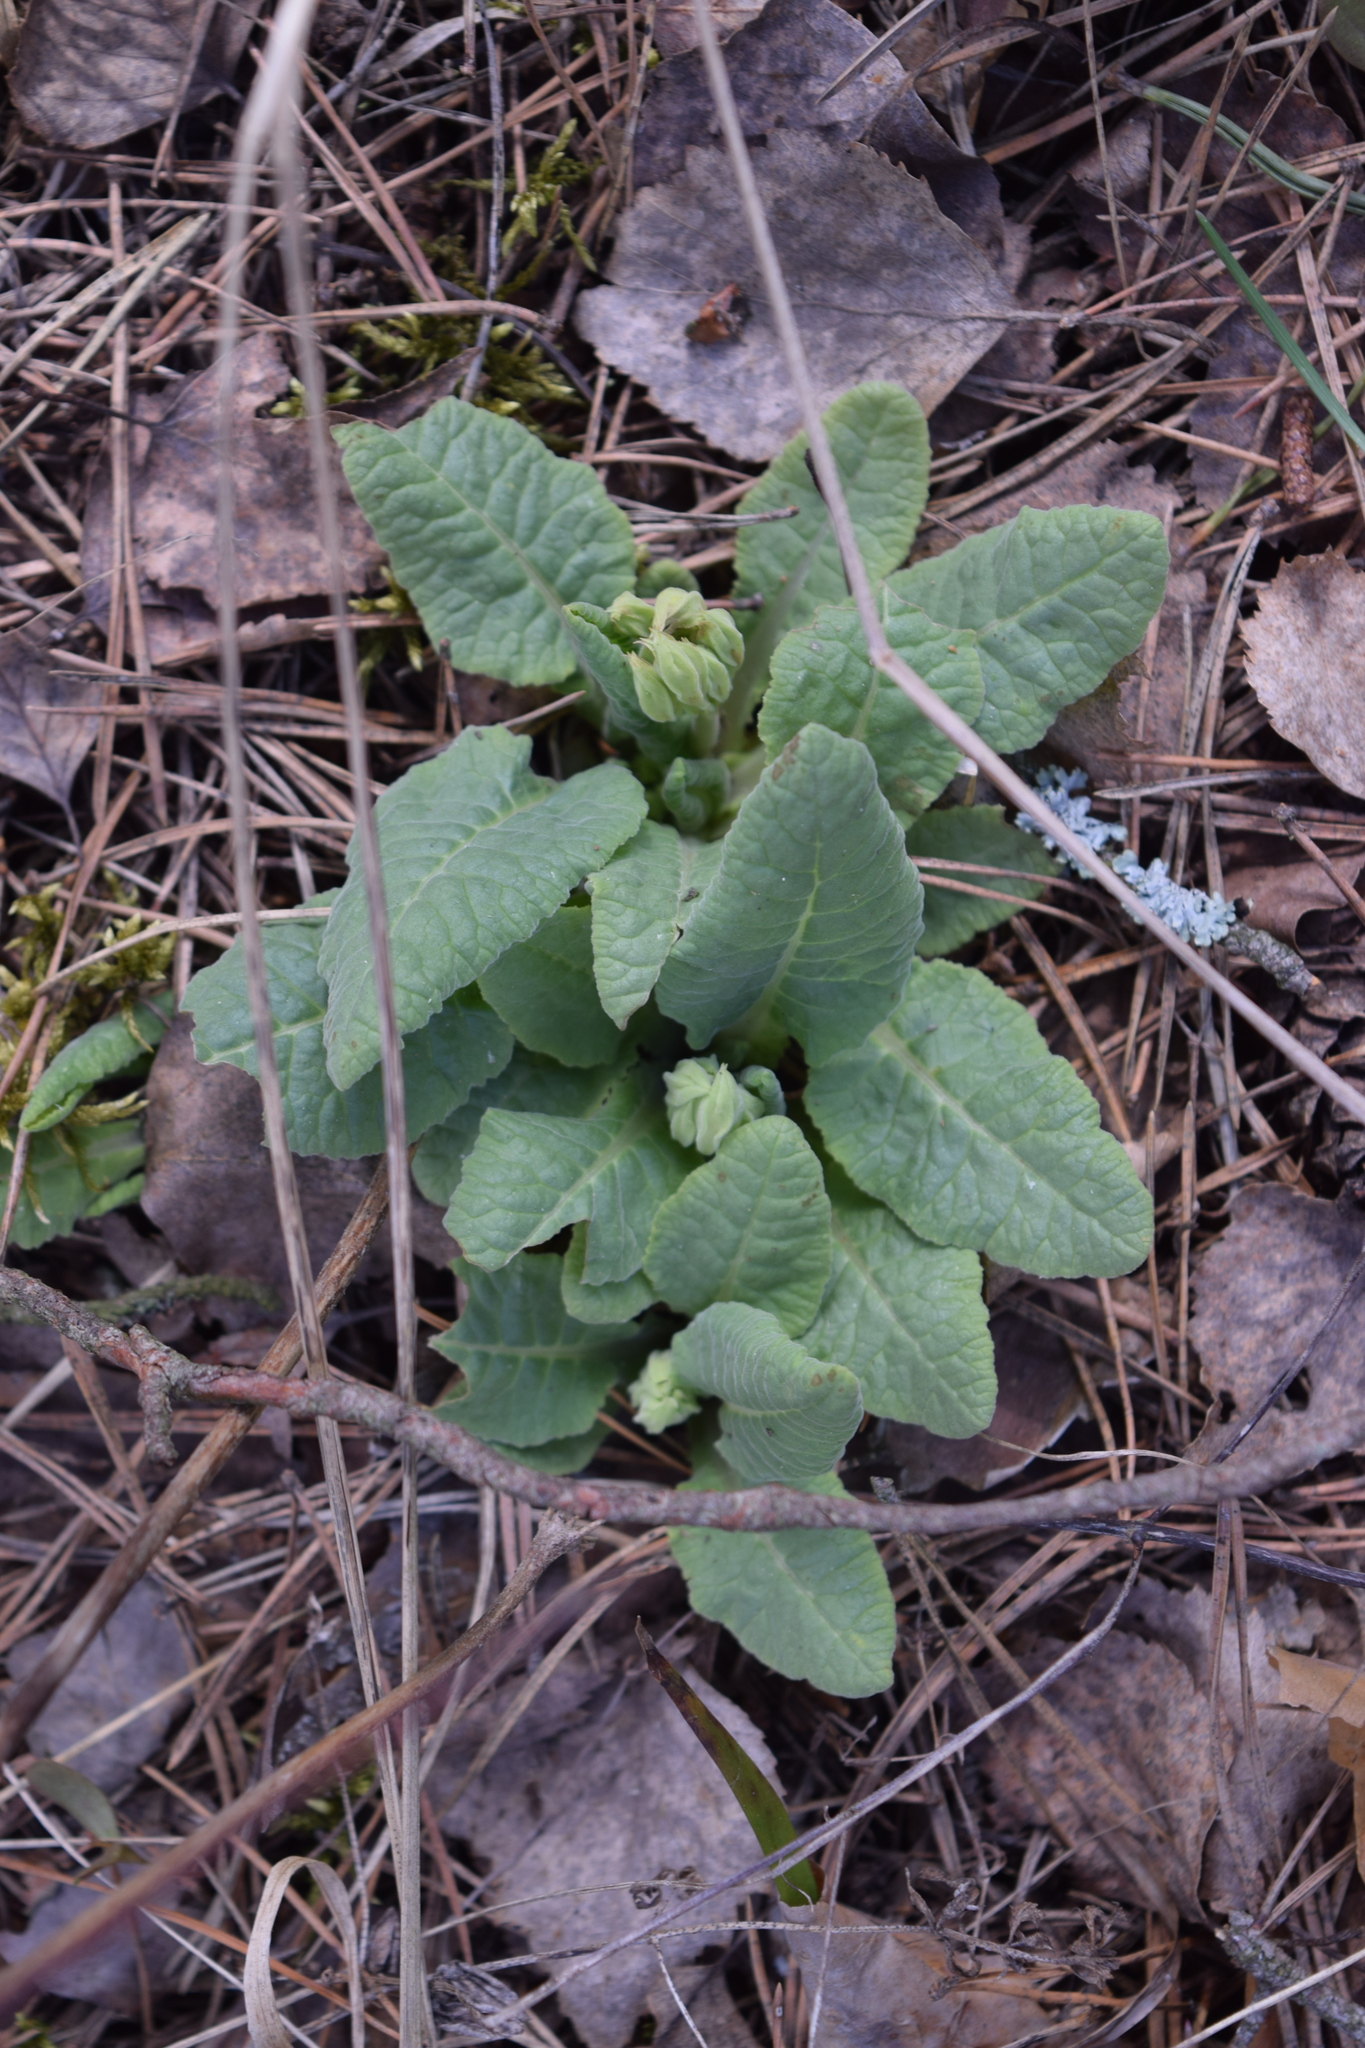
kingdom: Plantae
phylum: Tracheophyta
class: Magnoliopsida
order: Ericales
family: Primulaceae
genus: Primula
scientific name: Primula veris
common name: Cowslip
